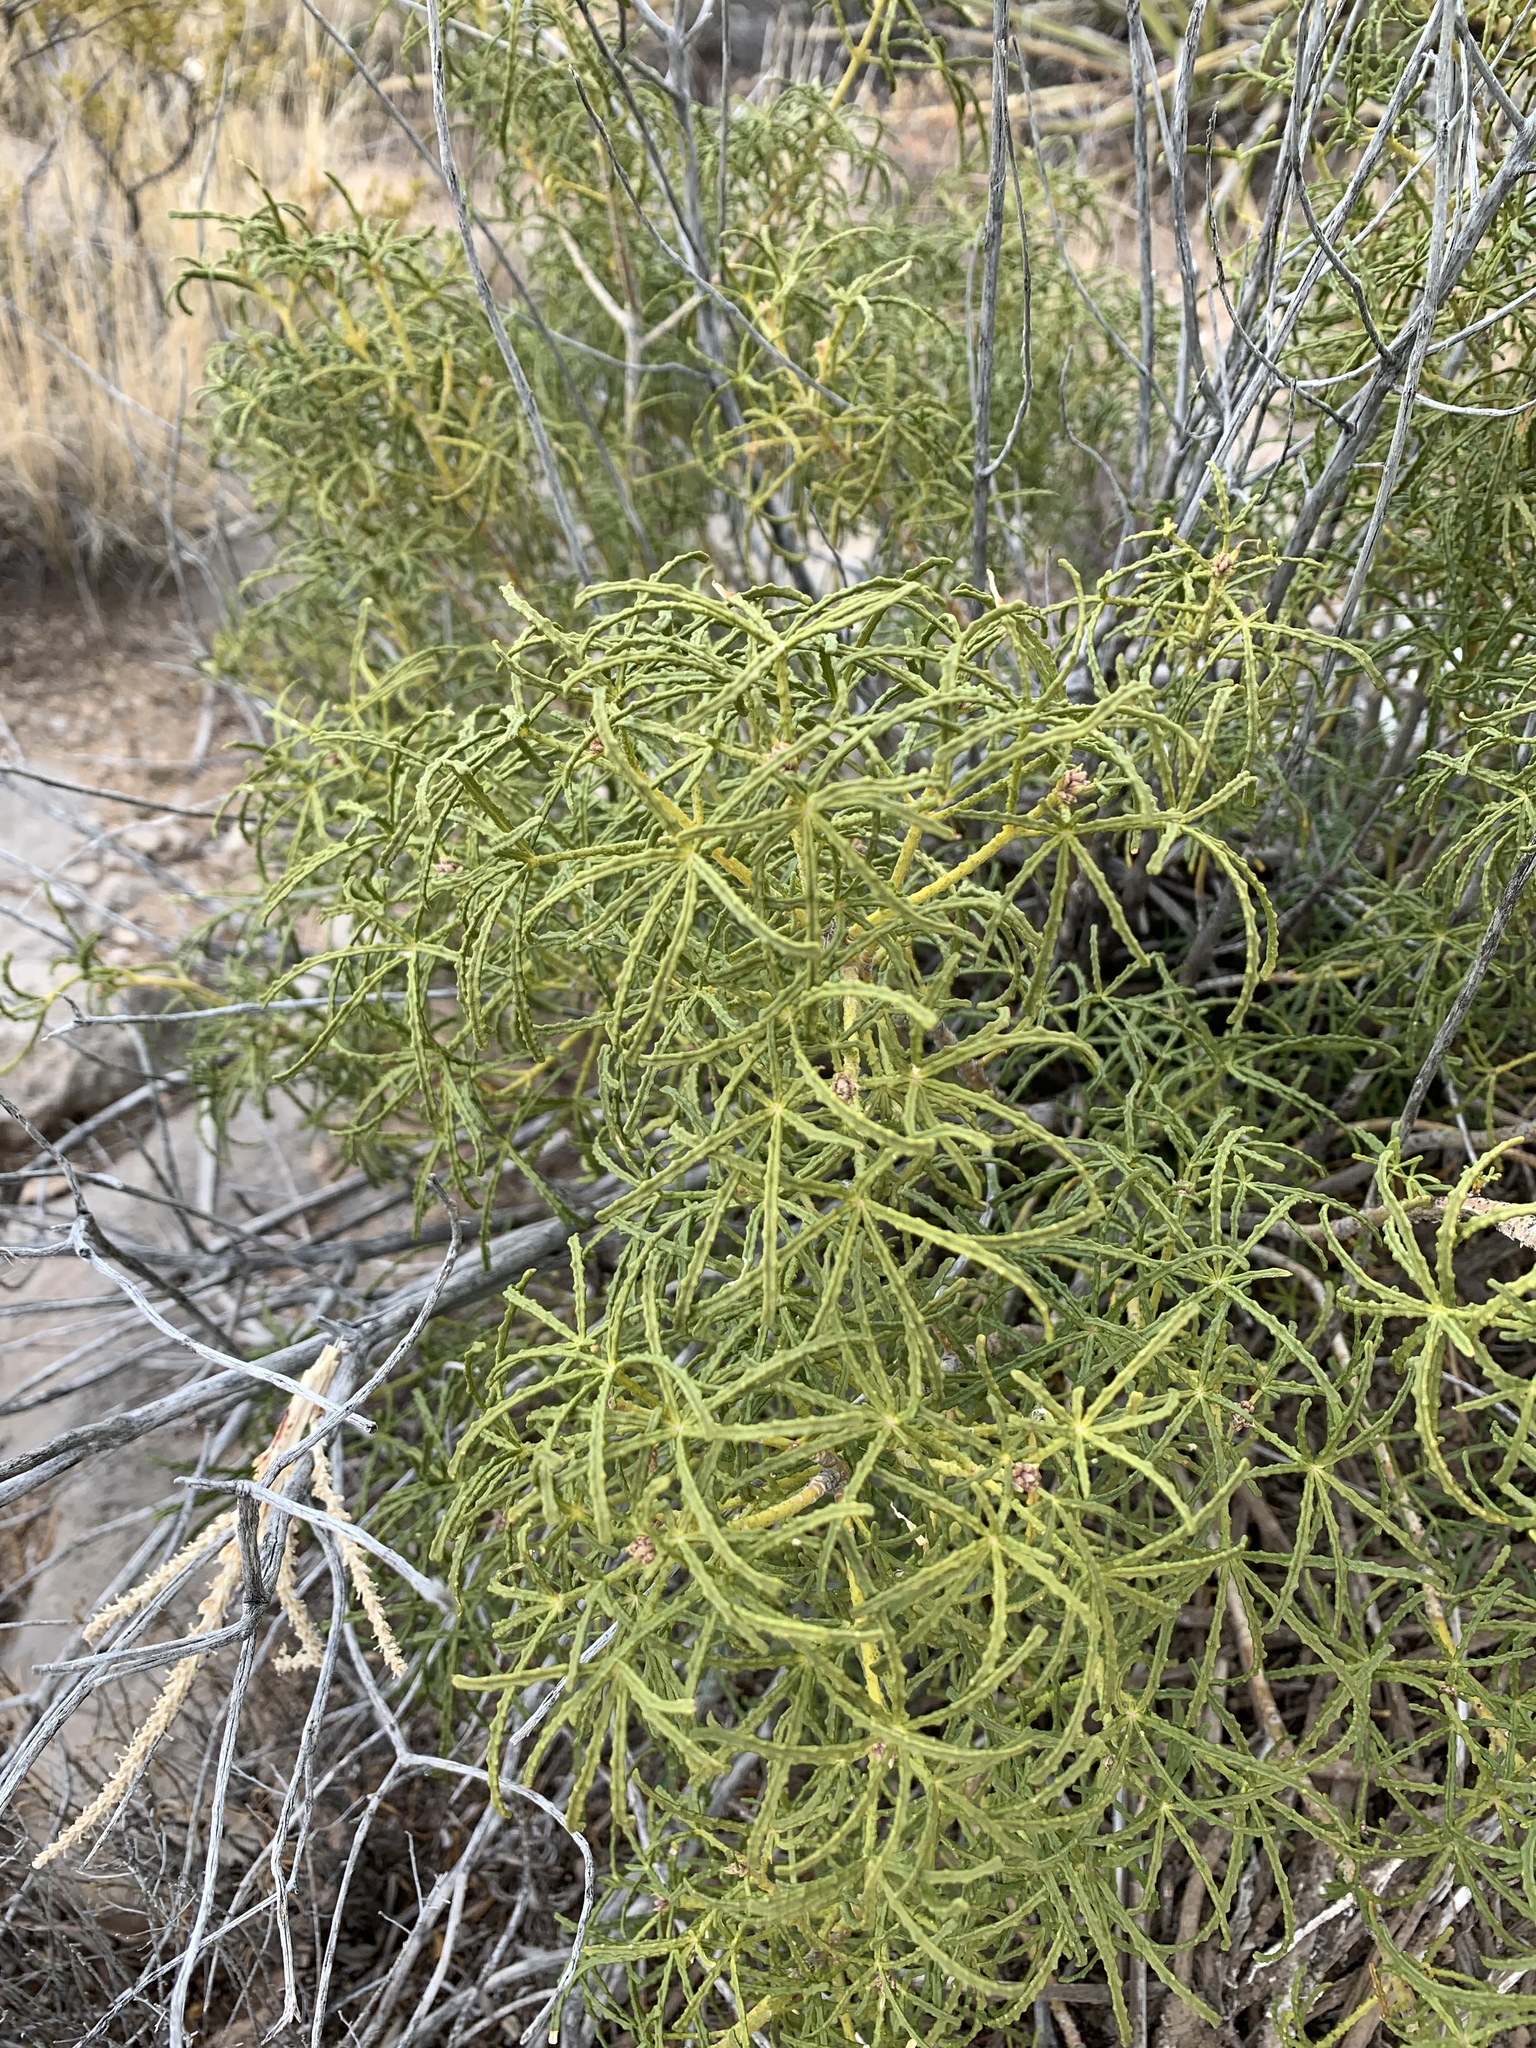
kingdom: Plantae
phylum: Tracheophyta
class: Magnoliopsida
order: Sapindales
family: Rutaceae
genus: Choisya
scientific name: Choisya dumosa
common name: Mexican-orange
